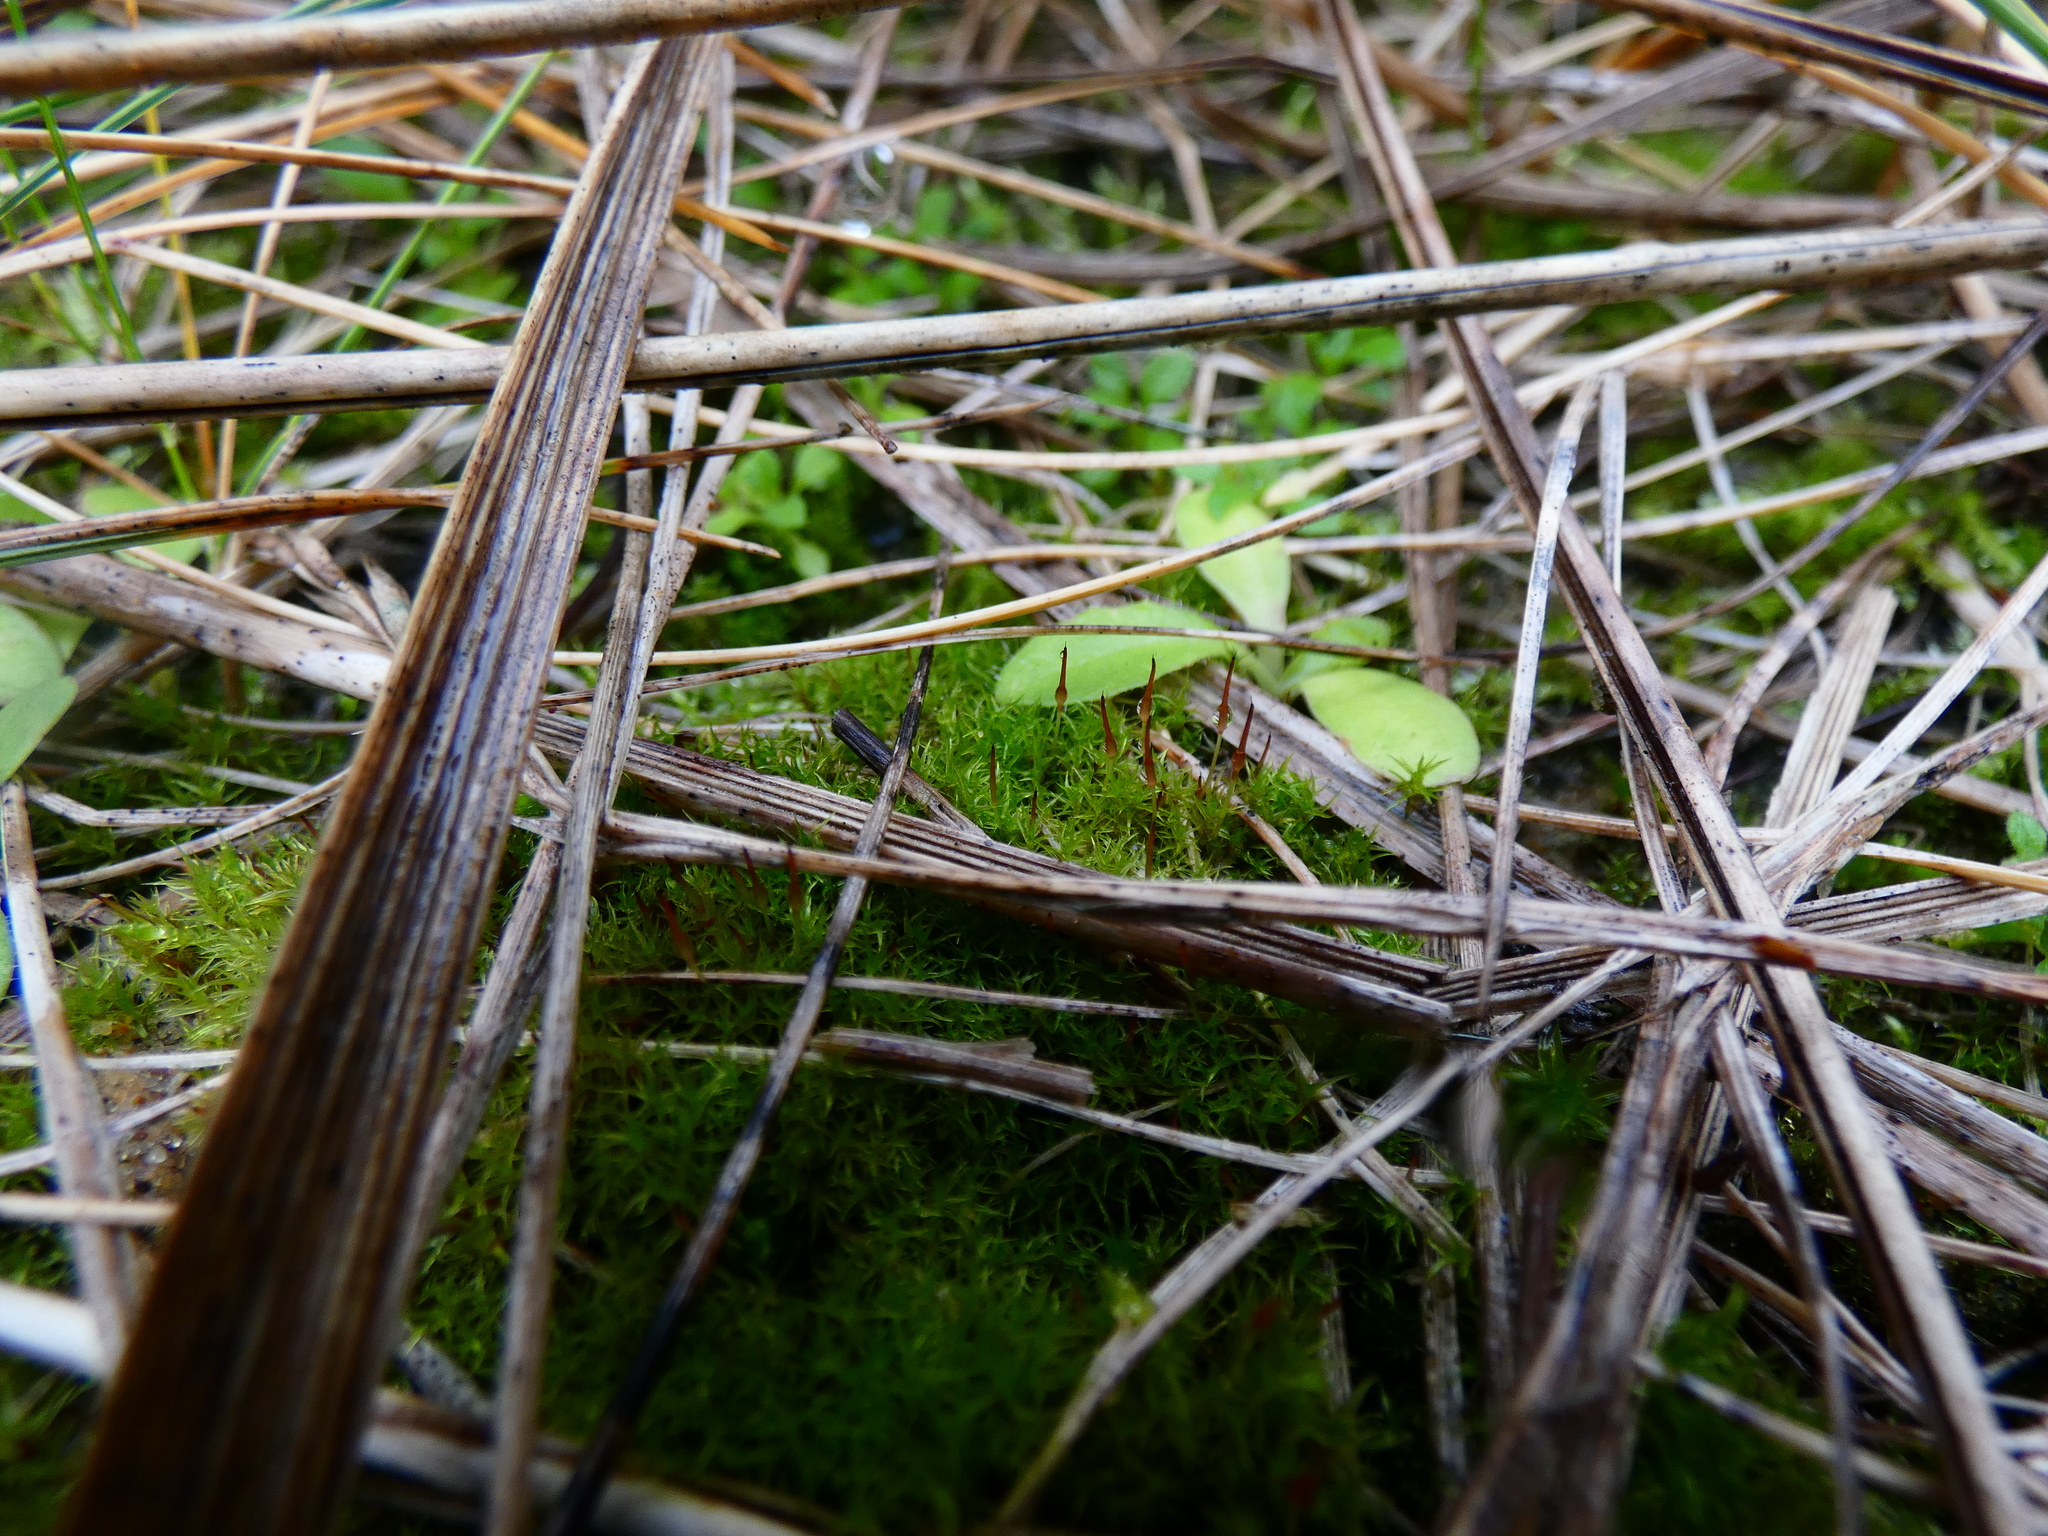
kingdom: Plantae
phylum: Bryophyta
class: Bryopsida
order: Dicranales
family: Ditrichaceae
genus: Ceratodon
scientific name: Ceratodon purpureus
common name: Redshank
